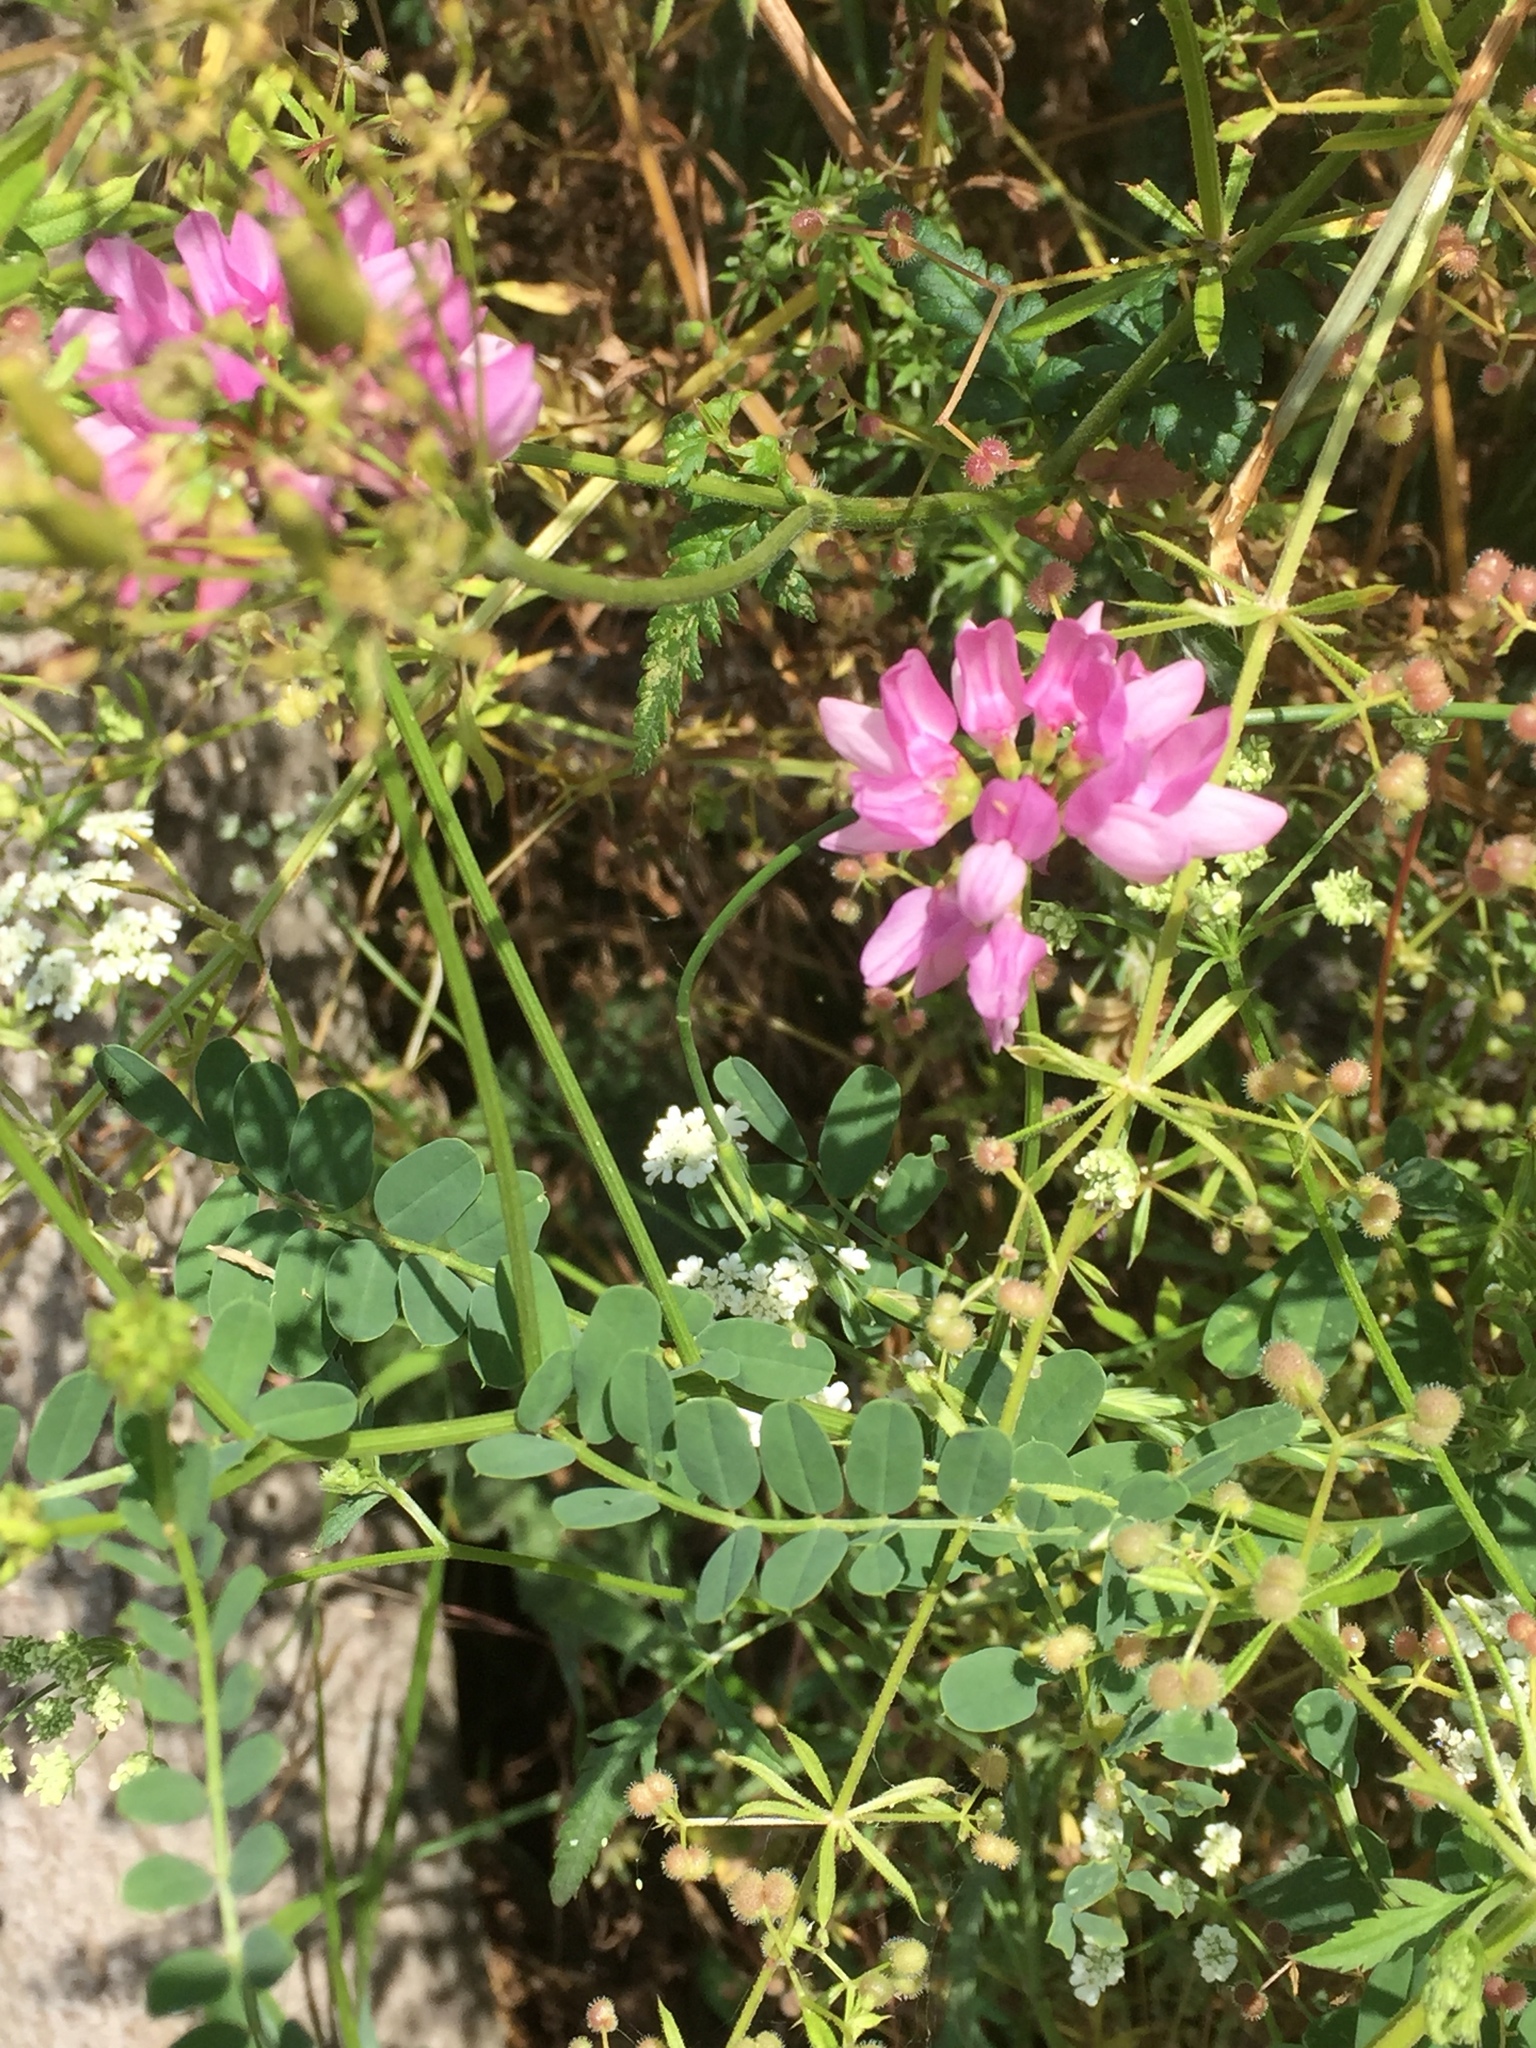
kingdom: Plantae
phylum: Tracheophyta
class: Magnoliopsida
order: Fabales
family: Fabaceae
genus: Coronilla
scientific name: Coronilla varia
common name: Crownvetch
